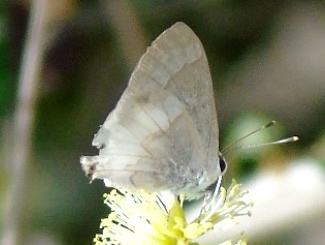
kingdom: Animalia
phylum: Arthropoda
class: Insecta
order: Lepidoptera
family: Lycaenidae
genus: Strymon
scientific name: Strymon albata
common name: White scrub-hairstreak
